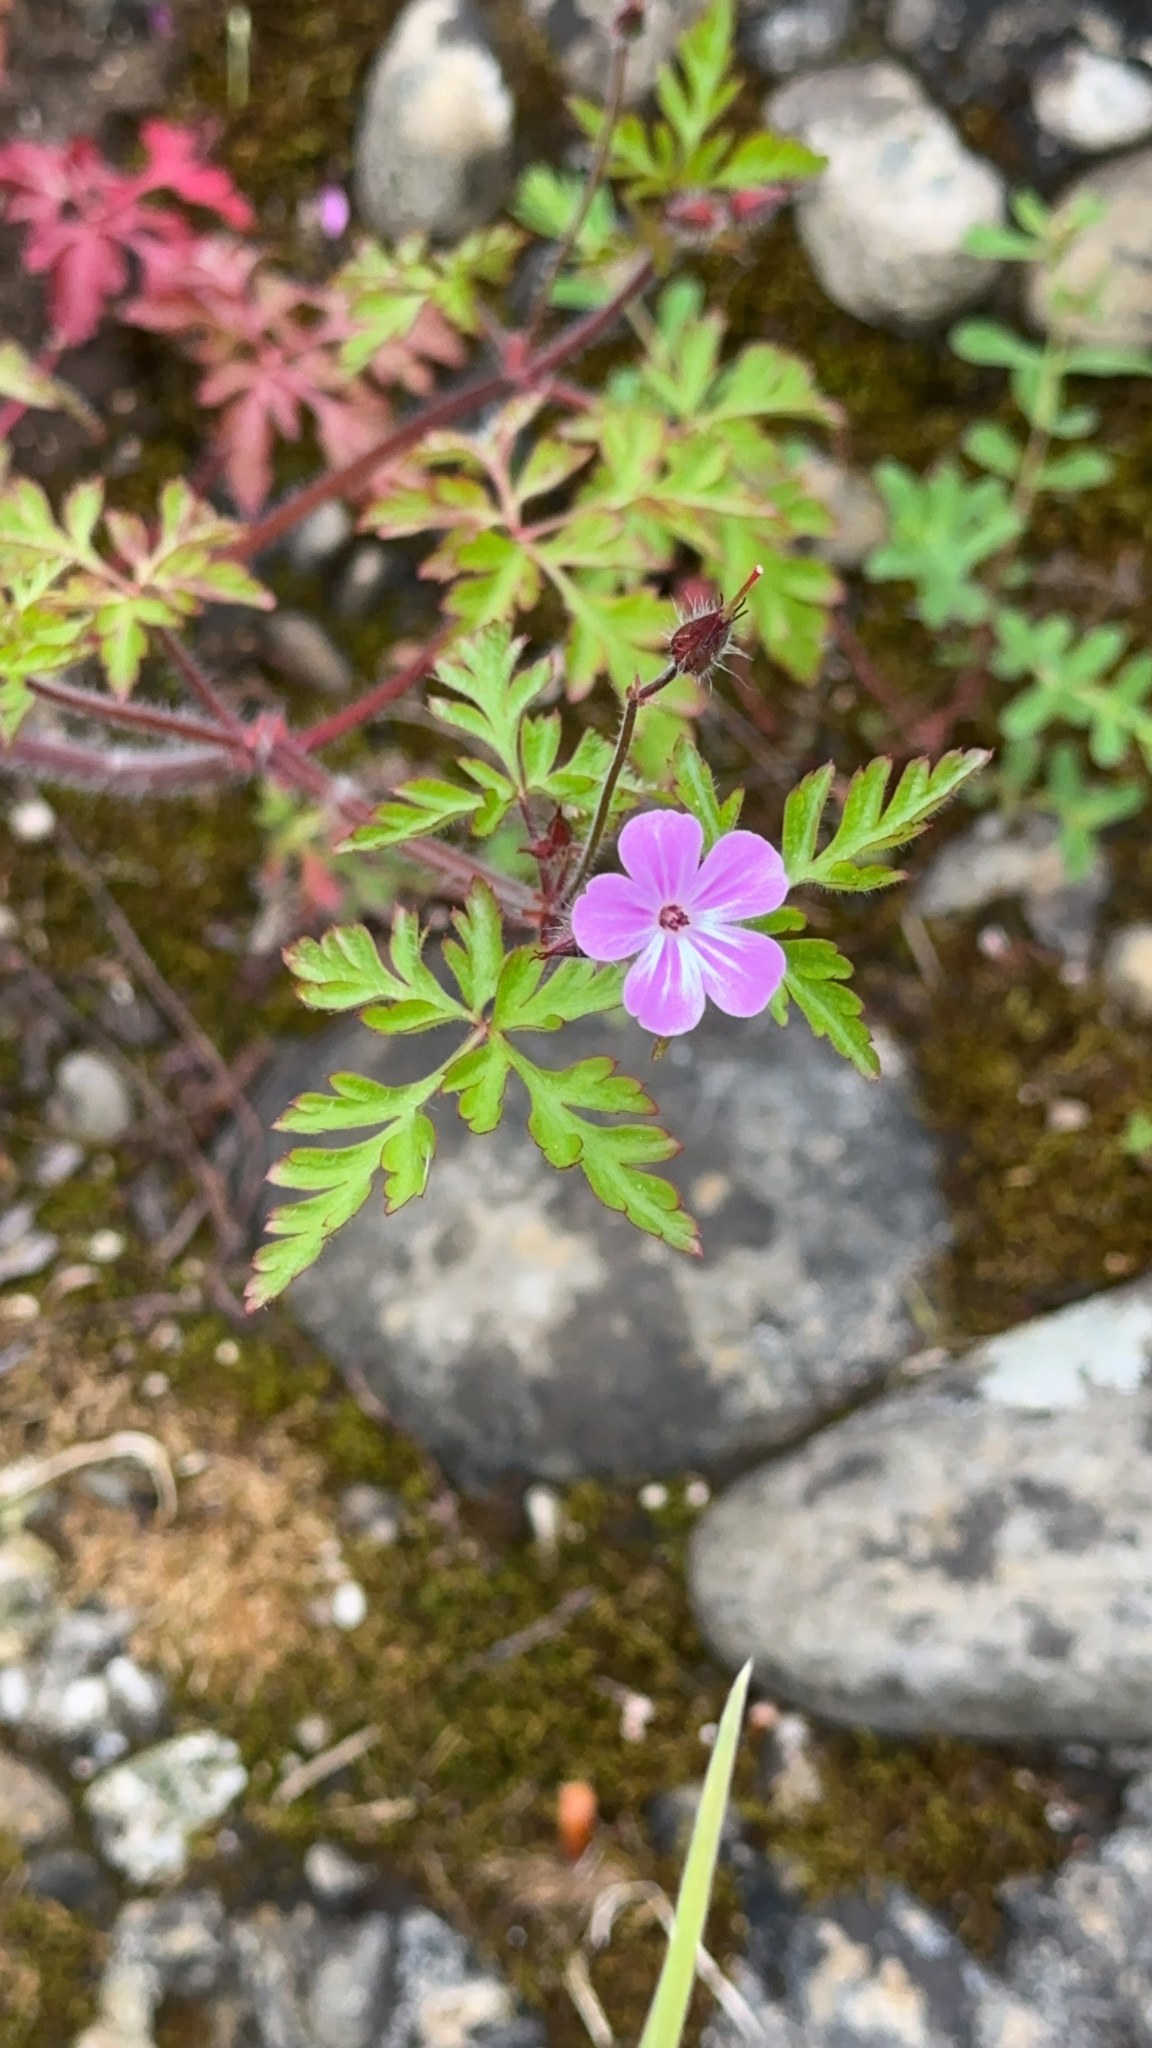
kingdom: Plantae
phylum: Tracheophyta
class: Magnoliopsida
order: Geraniales
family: Geraniaceae
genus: Geranium
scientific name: Geranium robertianum
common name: Herb-robert
